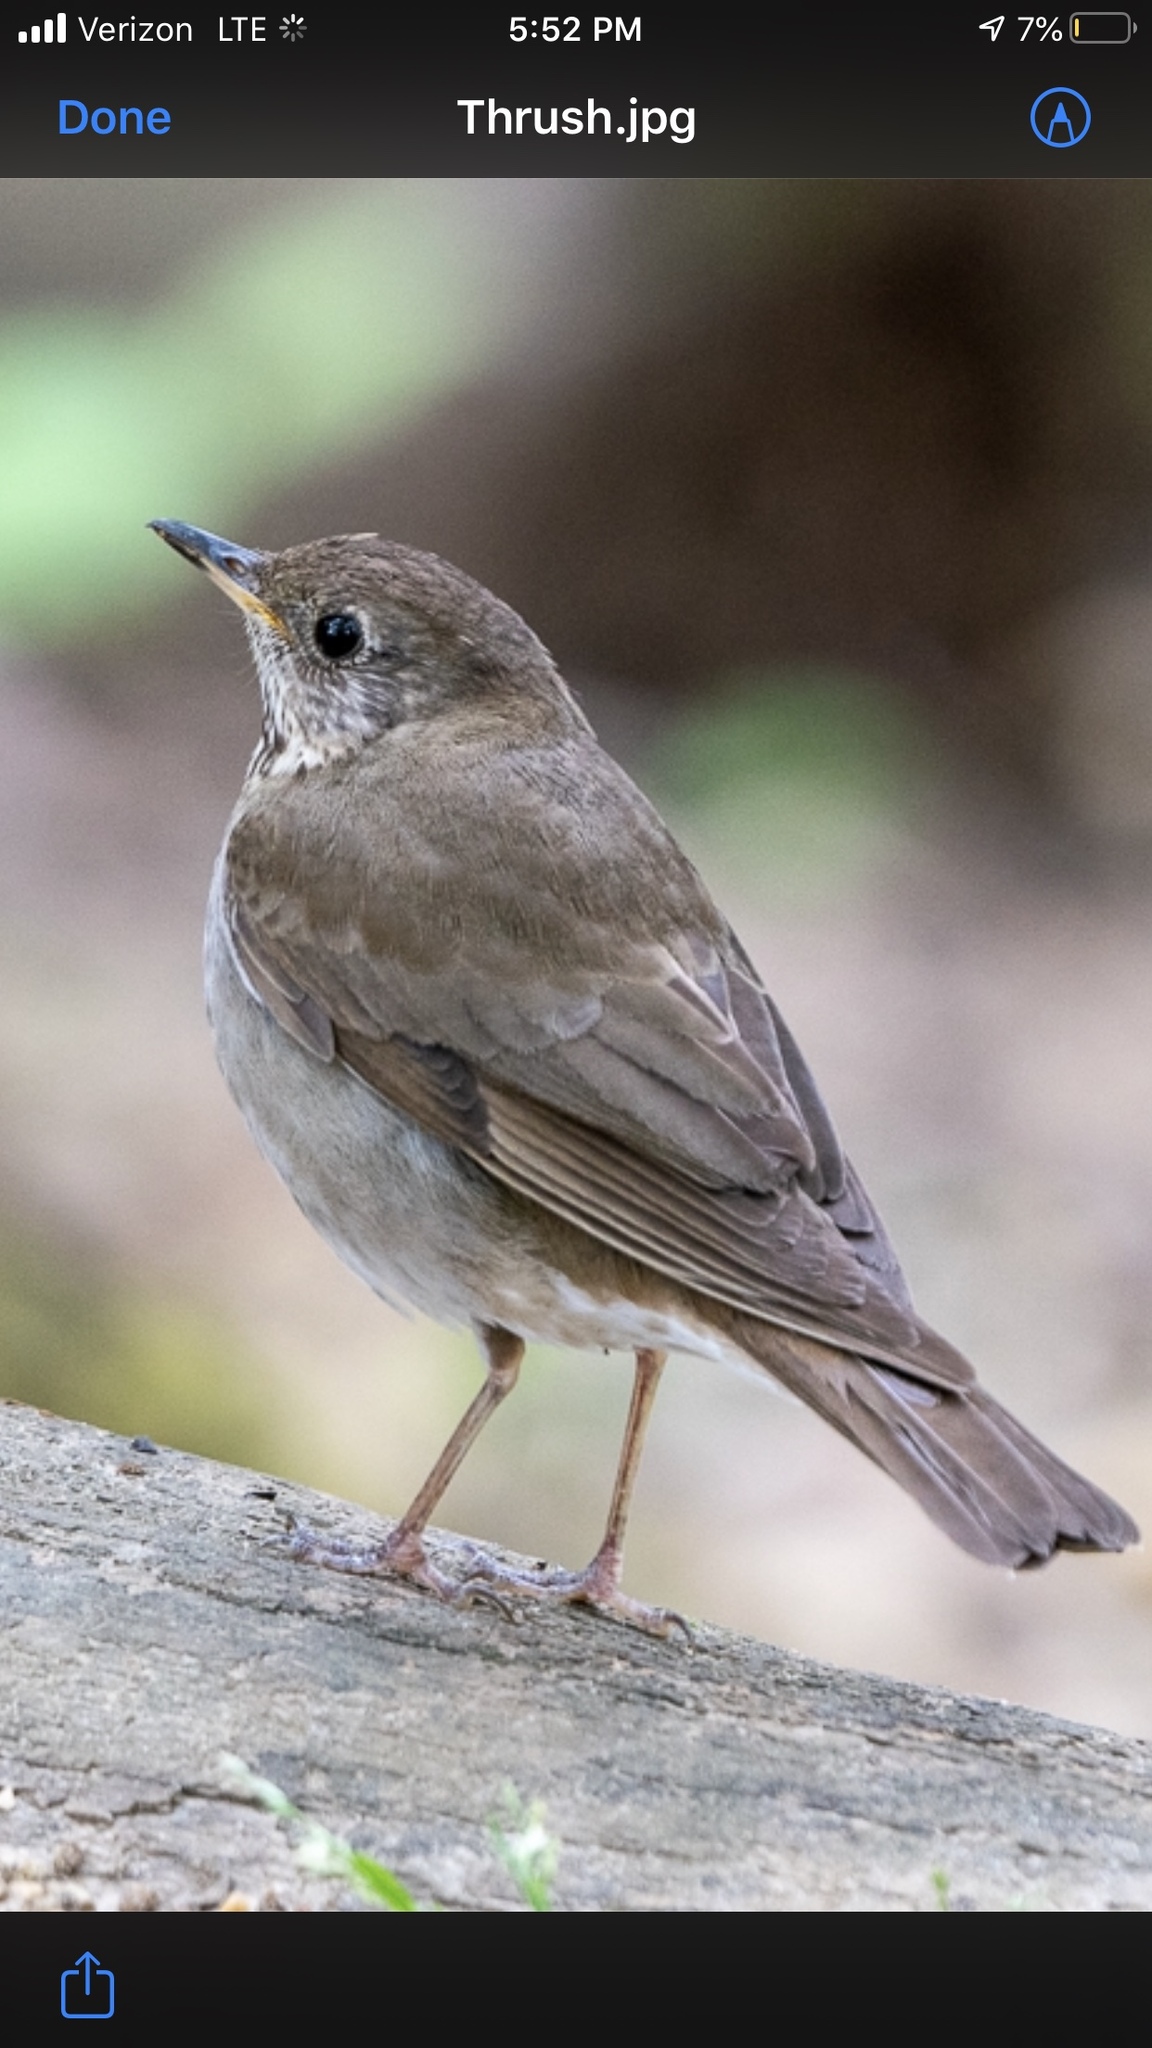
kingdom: Animalia
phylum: Chordata
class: Aves
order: Passeriformes
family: Turdidae
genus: Catharus
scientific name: Catharus minimus
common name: Grey-cheeked thrush
